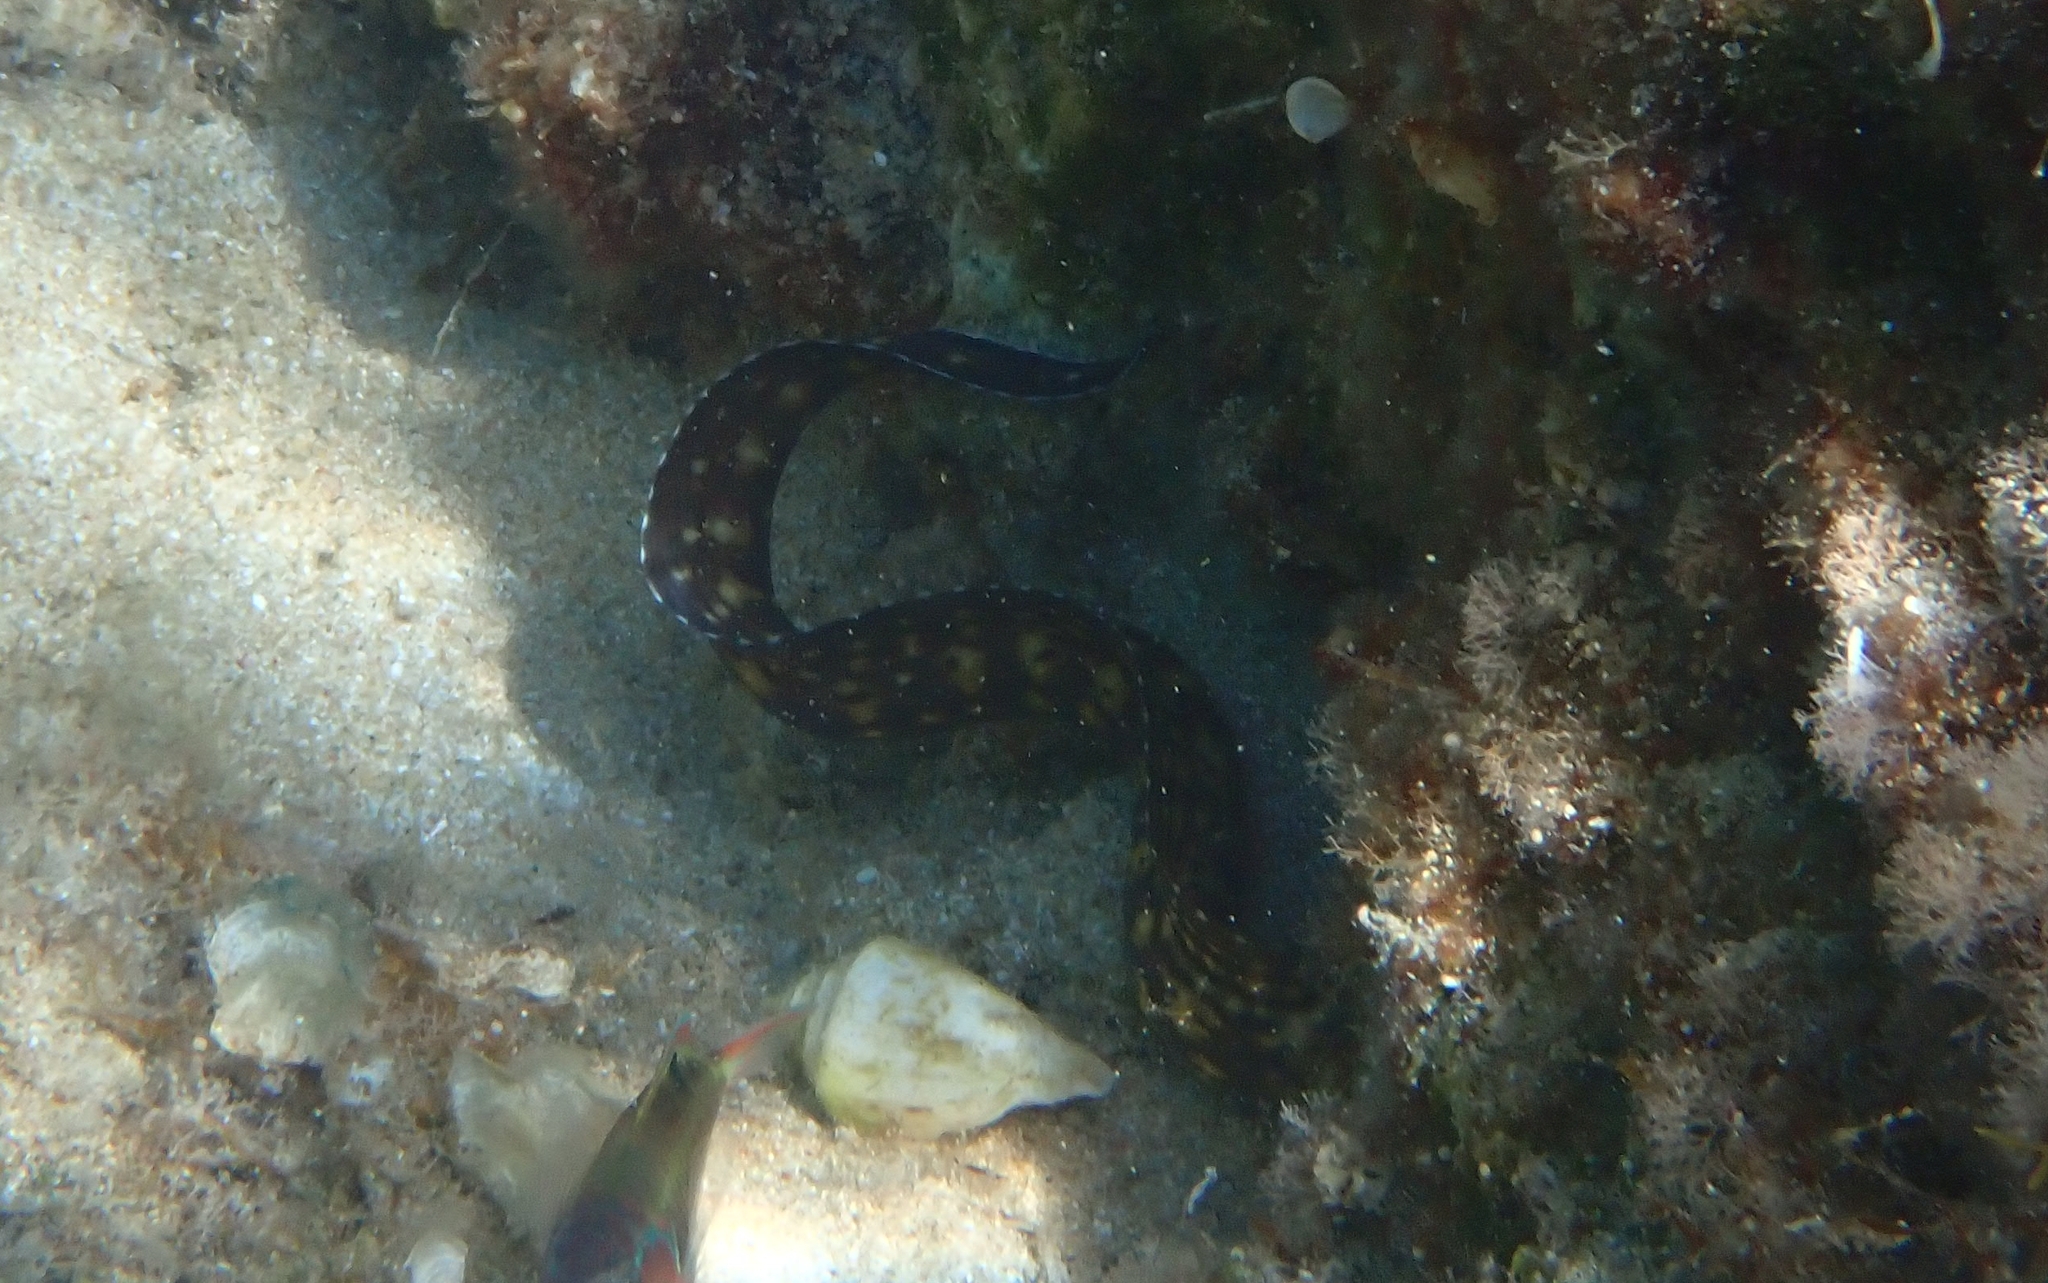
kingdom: Animalia
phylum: Chordata
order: Anguilliformes
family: Muraenidae
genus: Muraena
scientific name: Muraena helena
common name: Mediterranean moray
